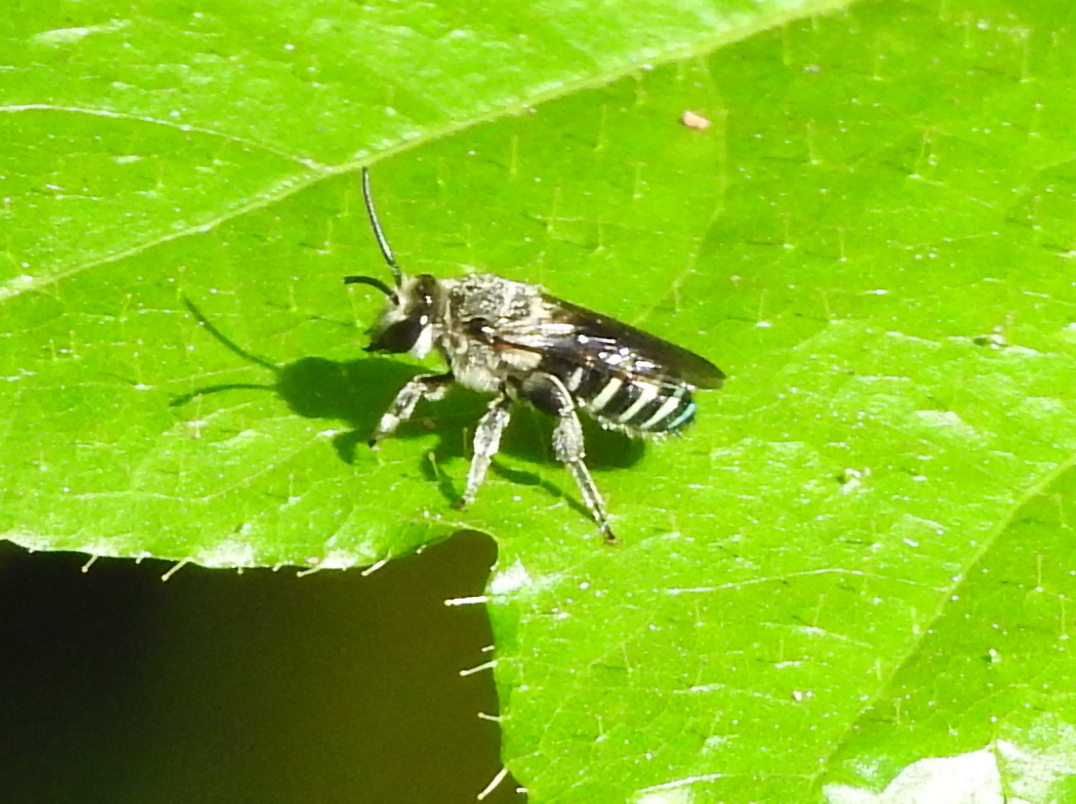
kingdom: Animalia
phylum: Arthropoda
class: Insecta
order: Hymenoptera
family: Halictidae
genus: Nomia
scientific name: Nomia incerta
